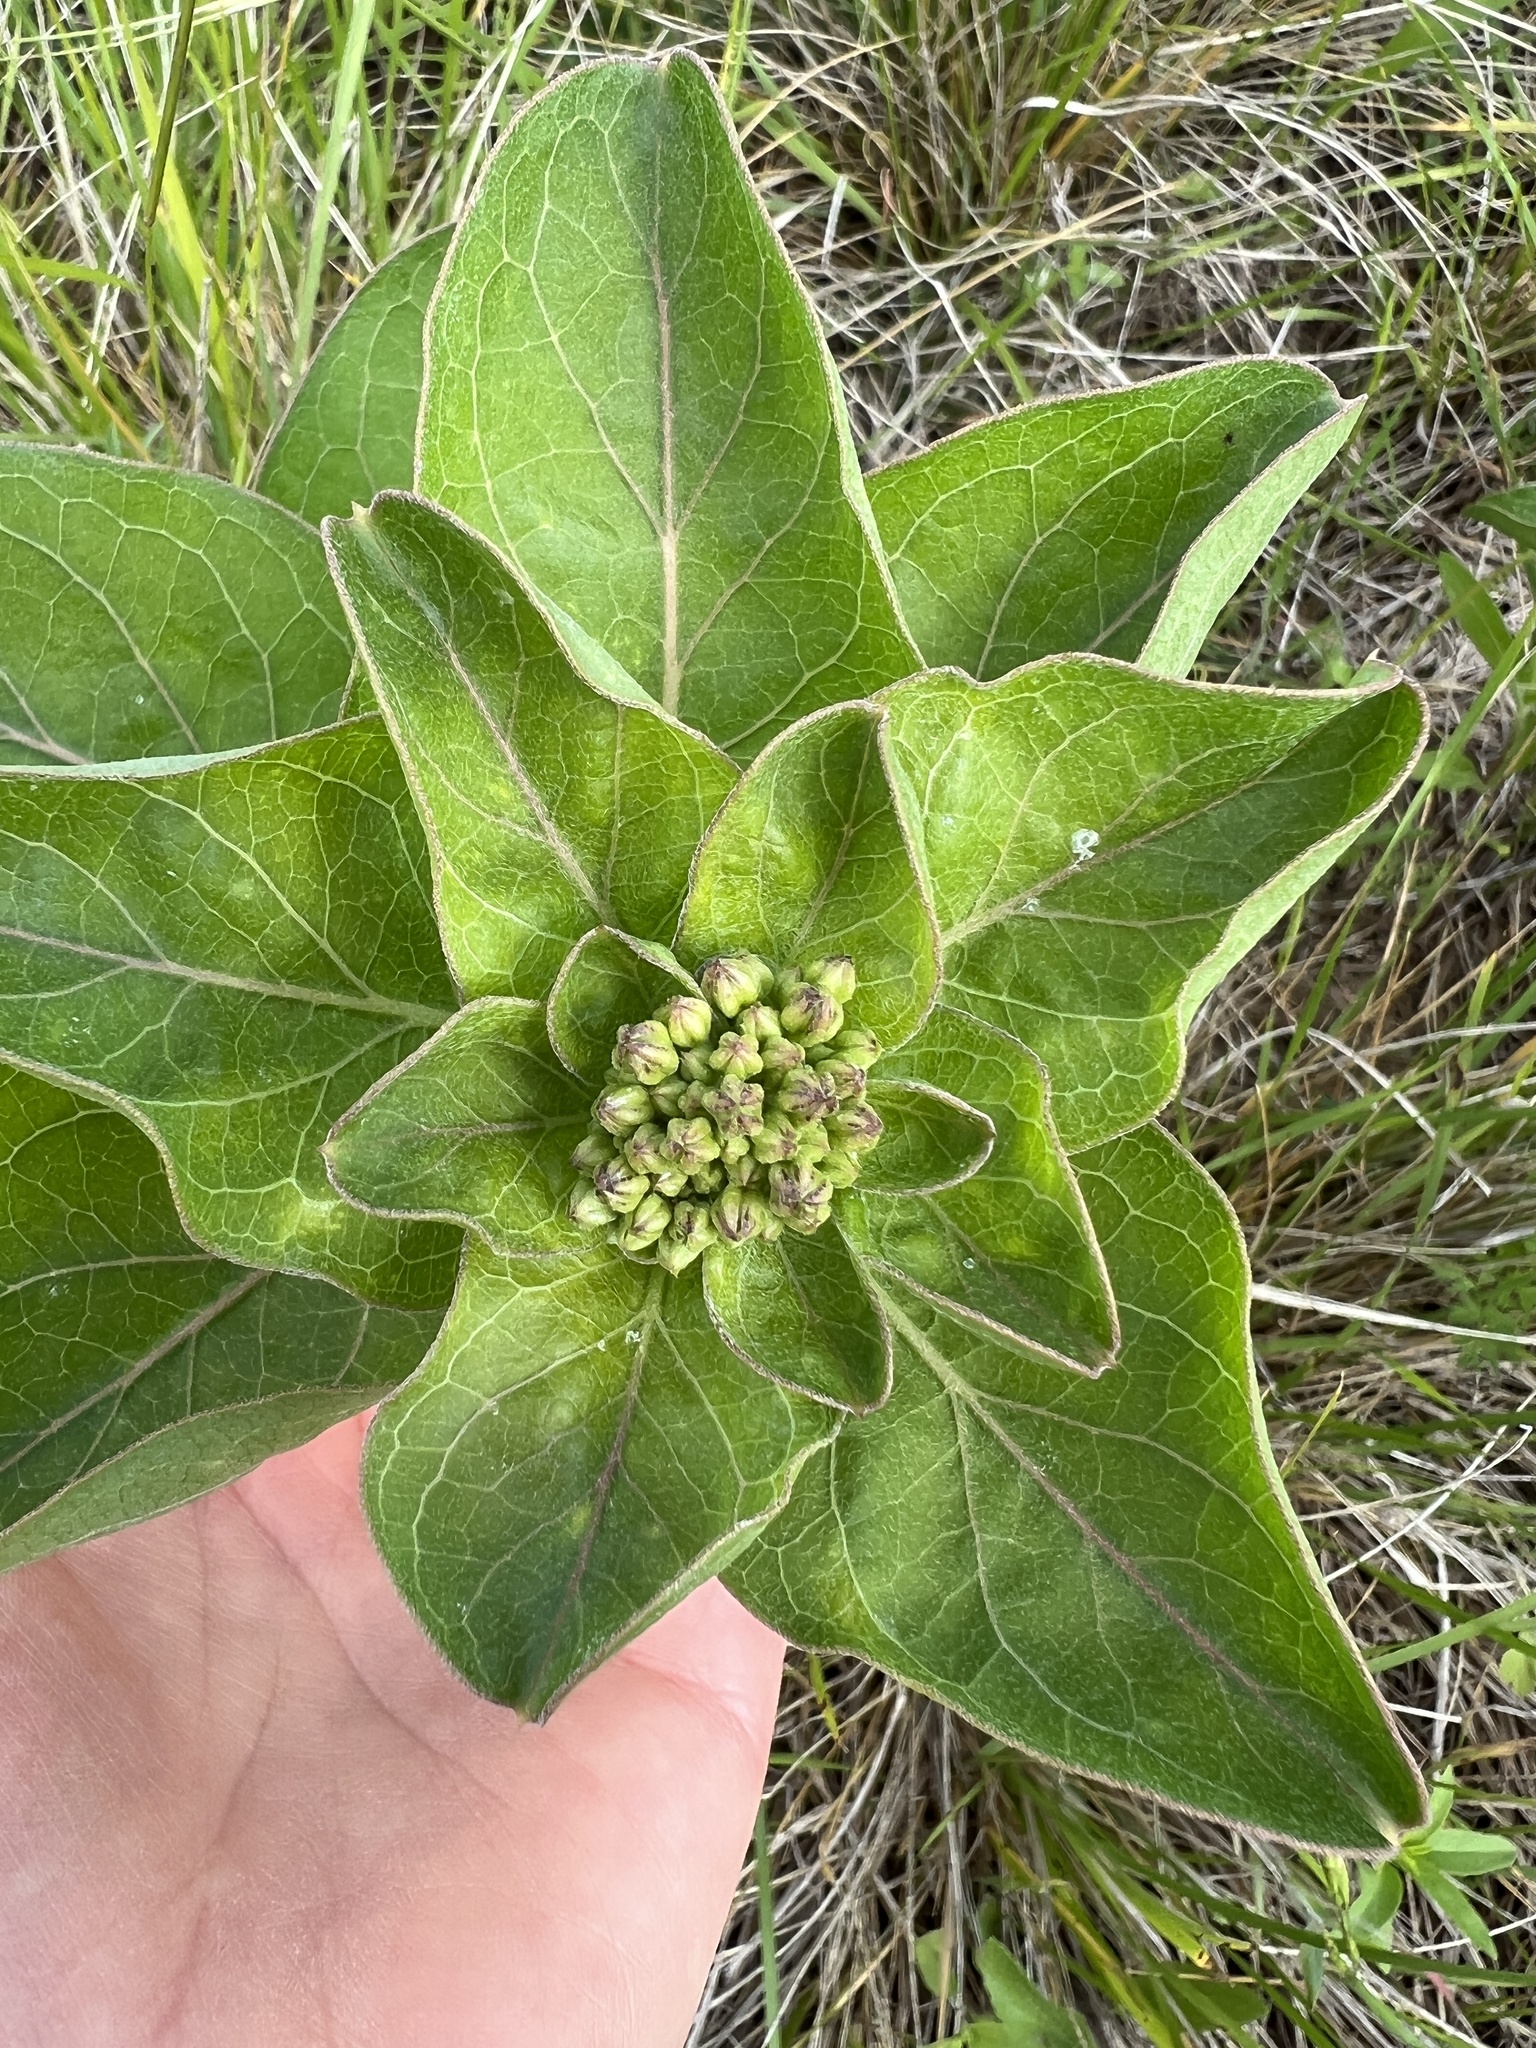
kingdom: Plantae
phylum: Tracheophyta
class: Magnoliopsida
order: Gentianales
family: Apocynaceae
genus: Asclepias
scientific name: Asclepias viridis
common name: Antelope-horns
